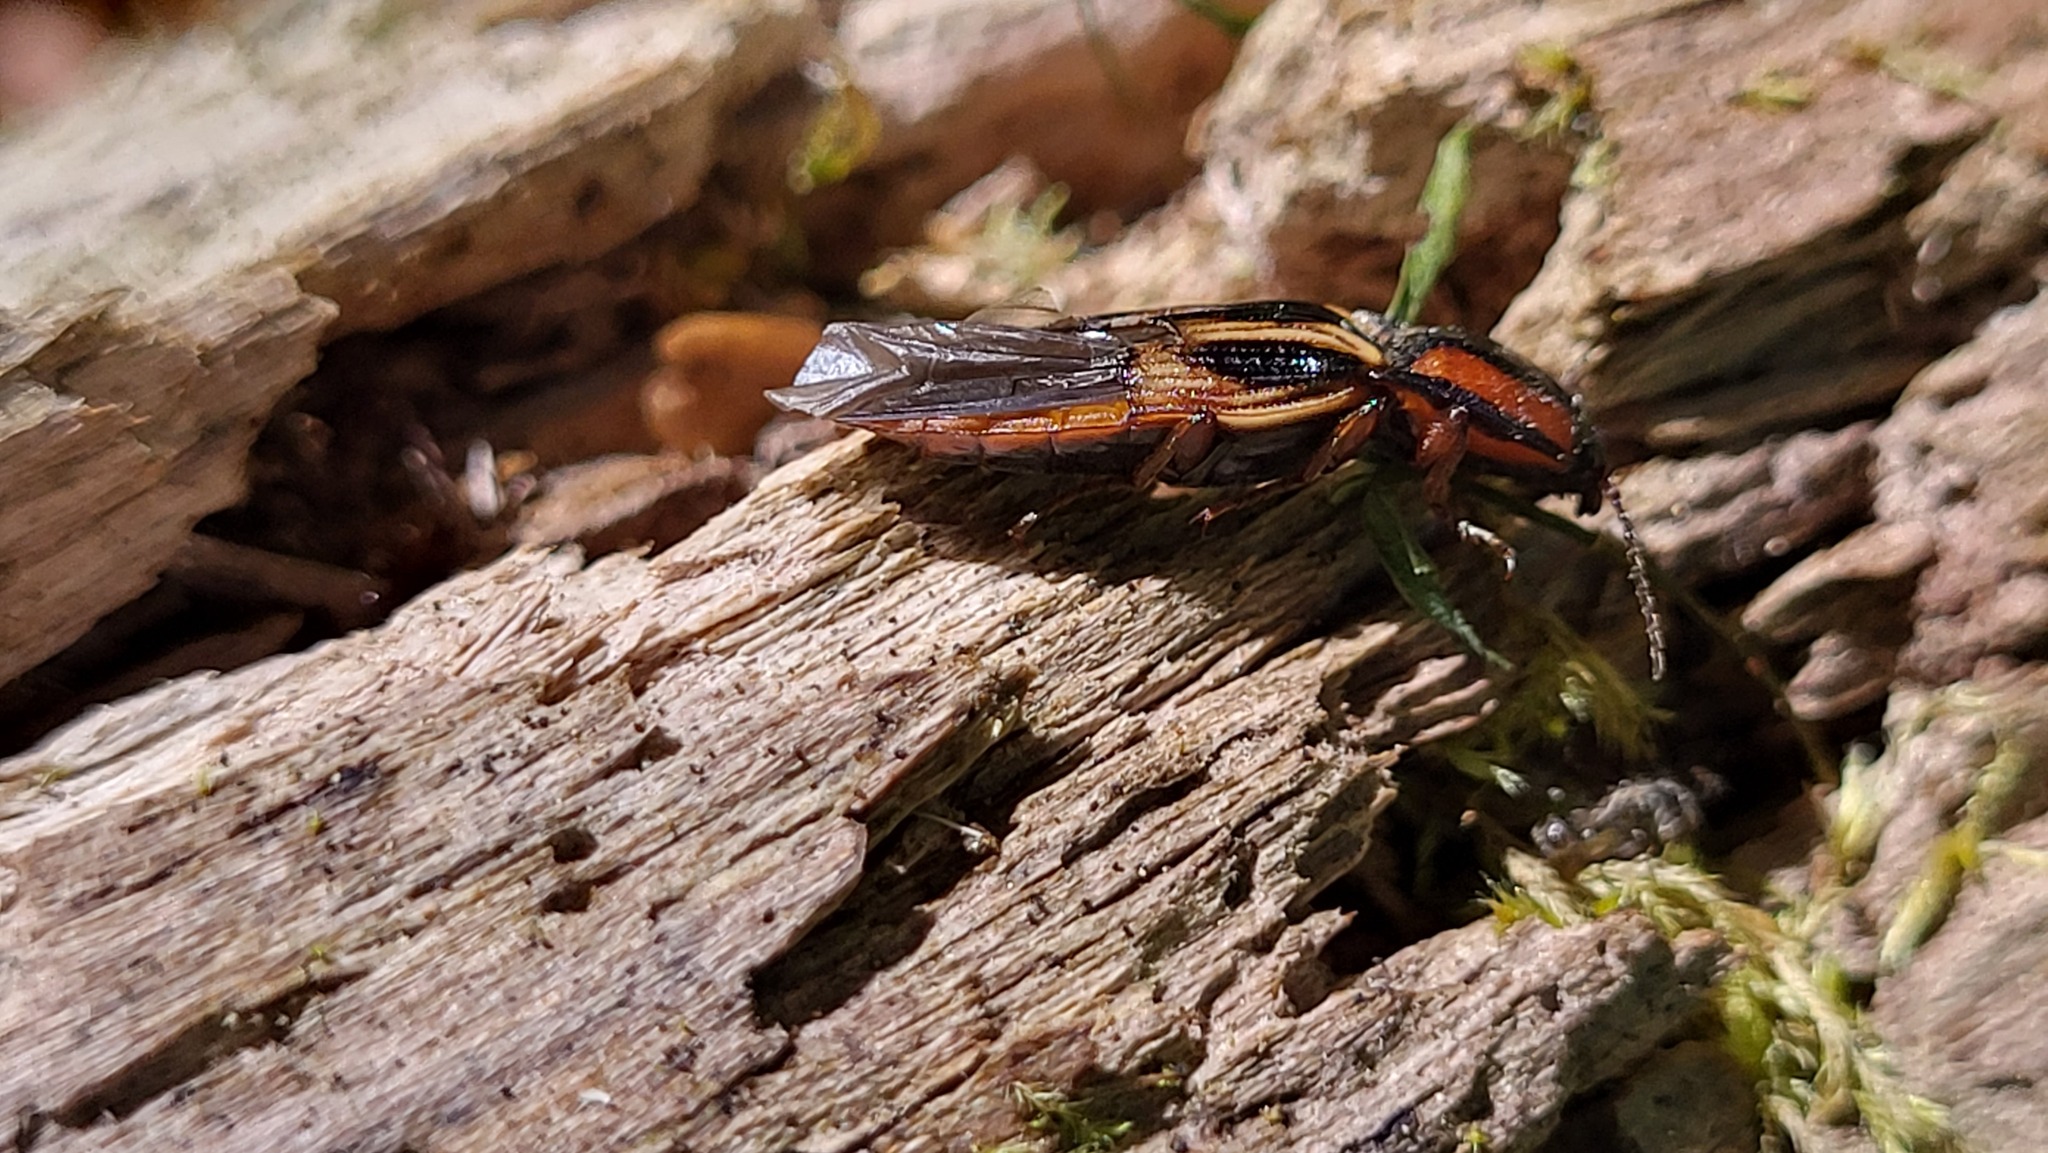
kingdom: Animalia
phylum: Arthropoda
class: Insecta
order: Coleoptera
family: Elateridae
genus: Selatosomus
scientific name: Selatosomus festivus
